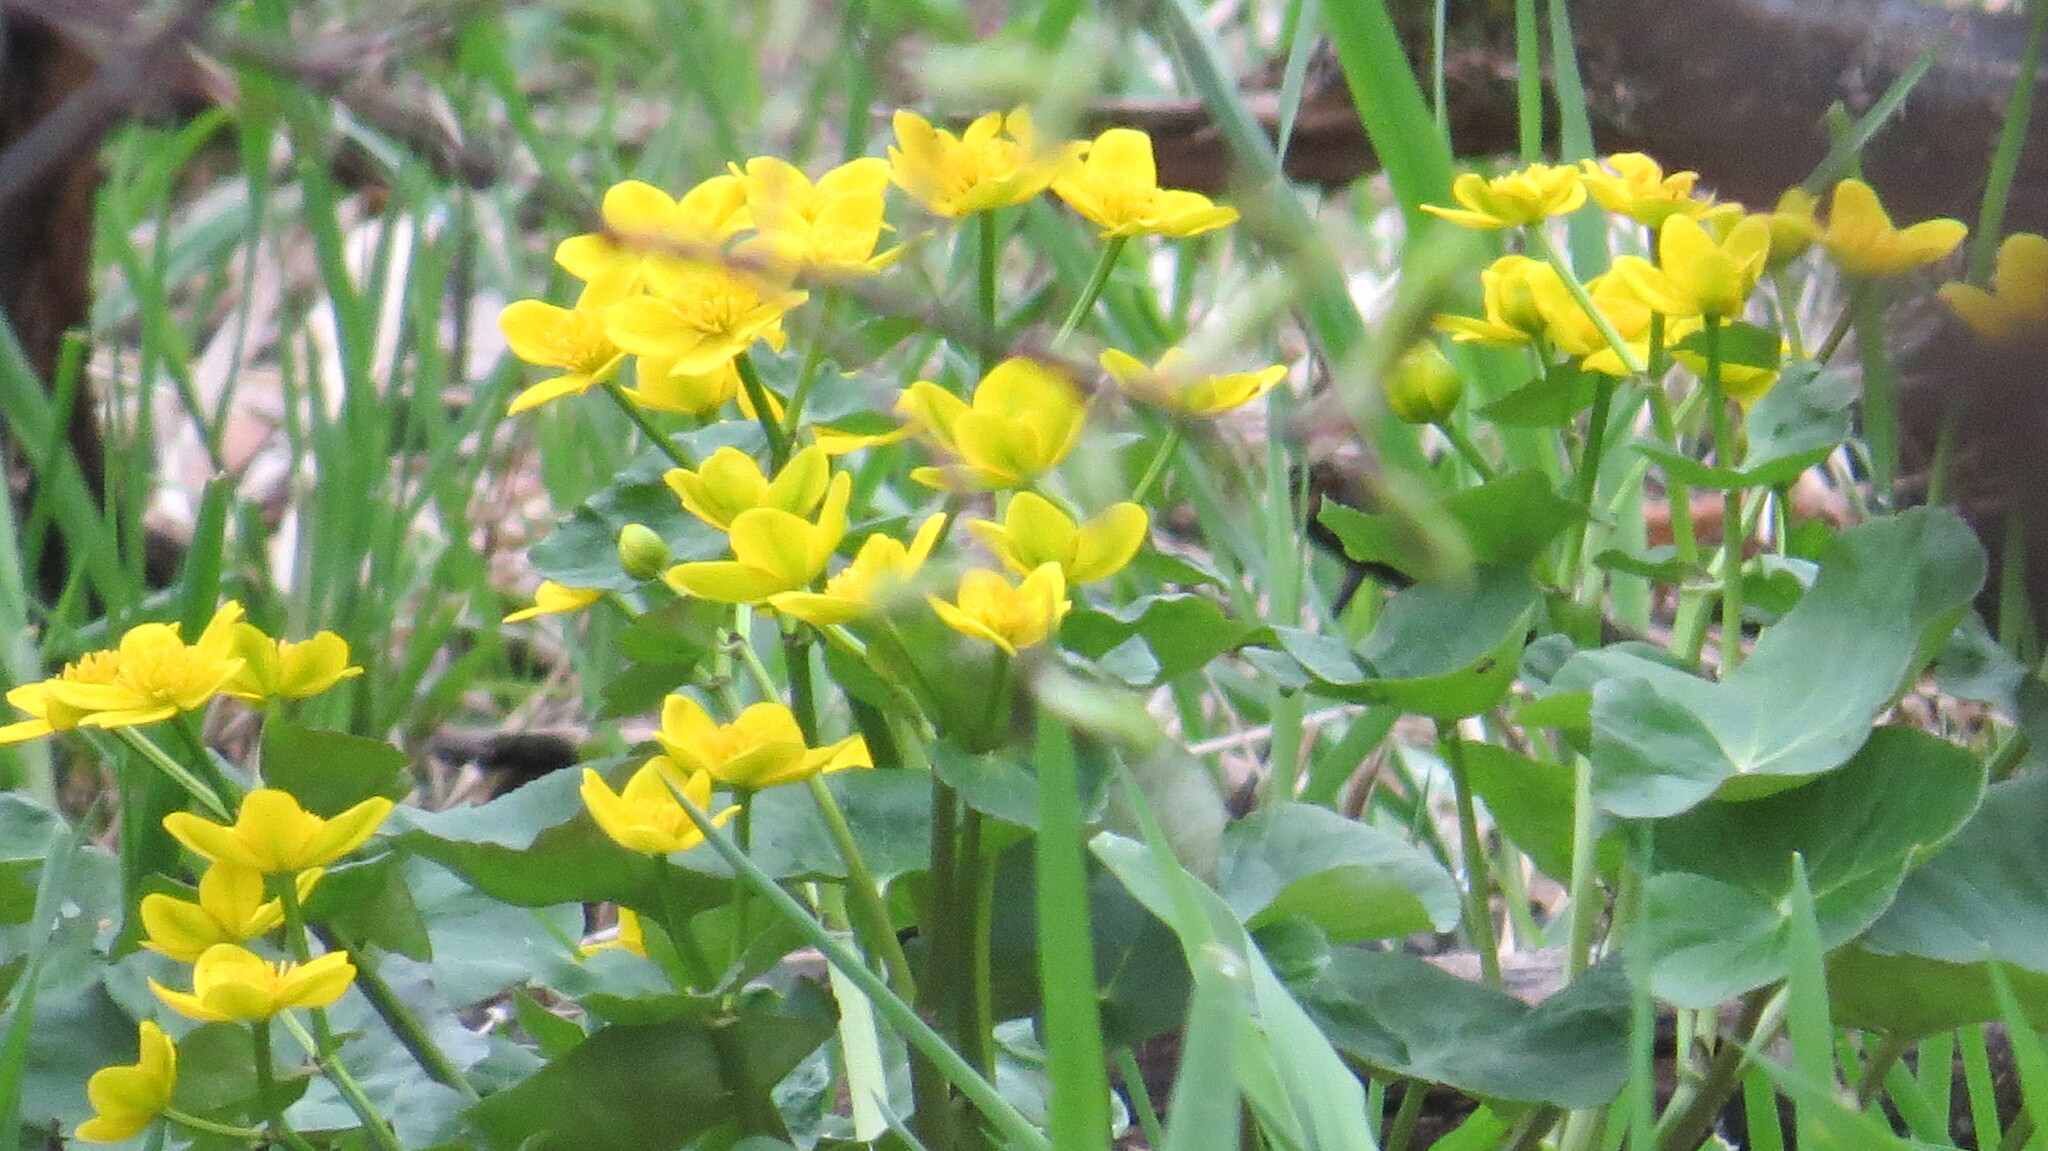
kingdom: Plantae
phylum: Tracheophyta
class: Magnoliopsida
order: Ranunculales
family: Ranunculaceae
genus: Caltha
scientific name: Caltha palustris
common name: Marsh marigold
